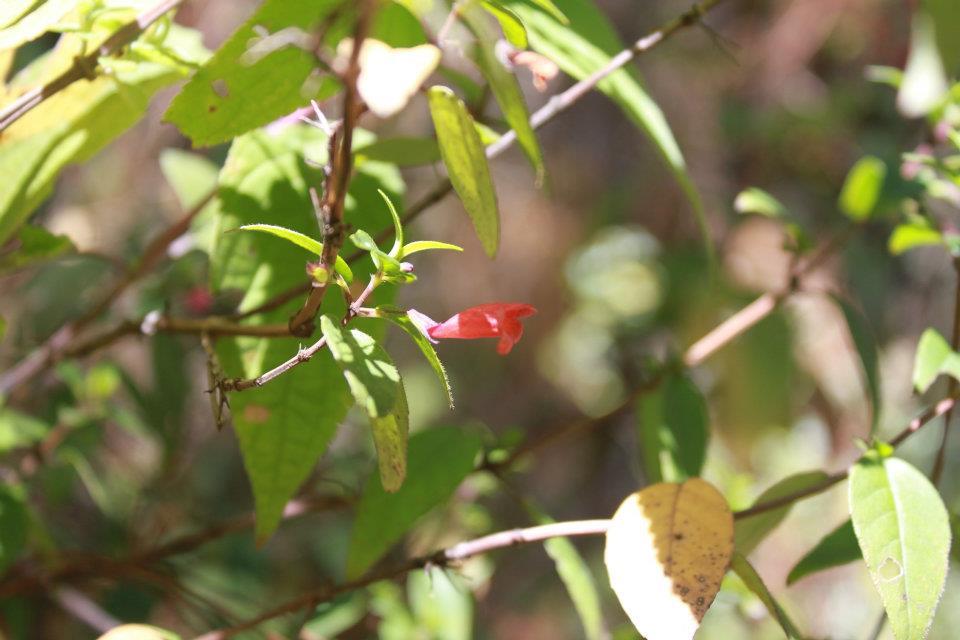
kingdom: Plantae
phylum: Tracheophyta
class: Magnoliopsida
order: Lamiales
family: Lamiaceae
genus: Clinopodium
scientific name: Clinopodium macrostemum
